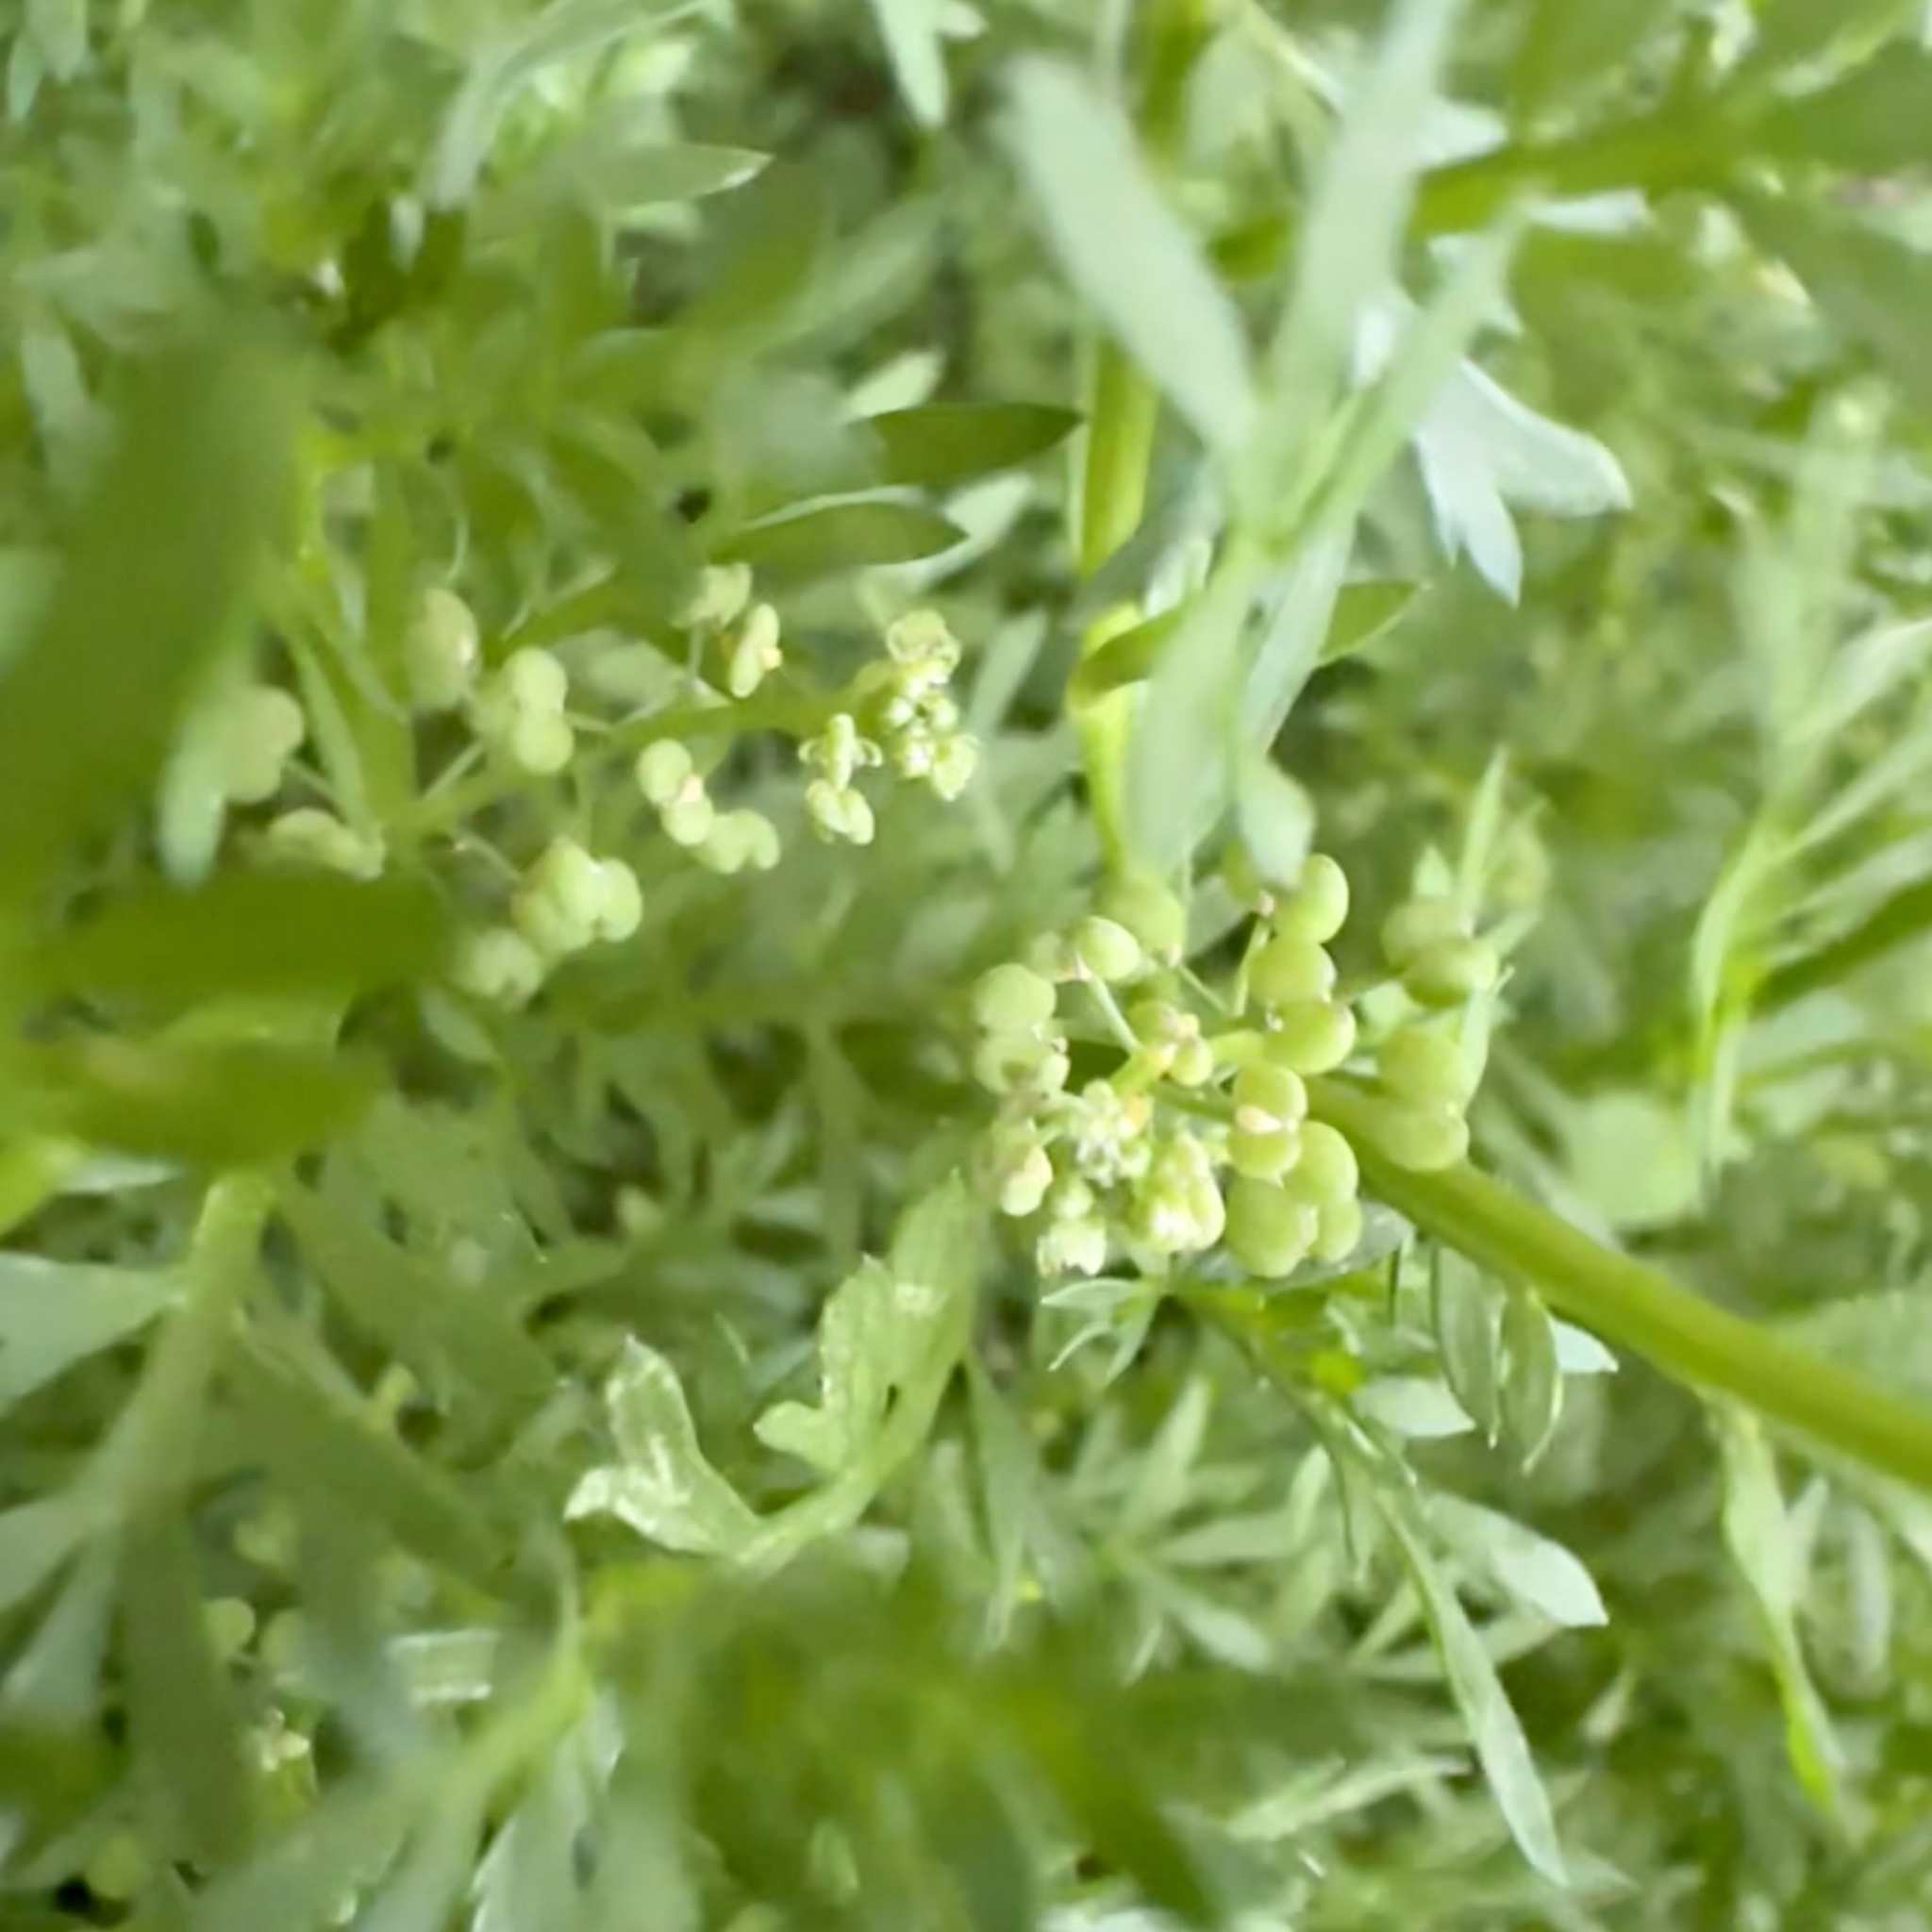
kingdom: Plantae
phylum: Tracheophyta
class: Magnoliopsida
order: Brassicales
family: Brassicaceae
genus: Lepidium
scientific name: Lepidium didymum
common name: Lesser swinecress
